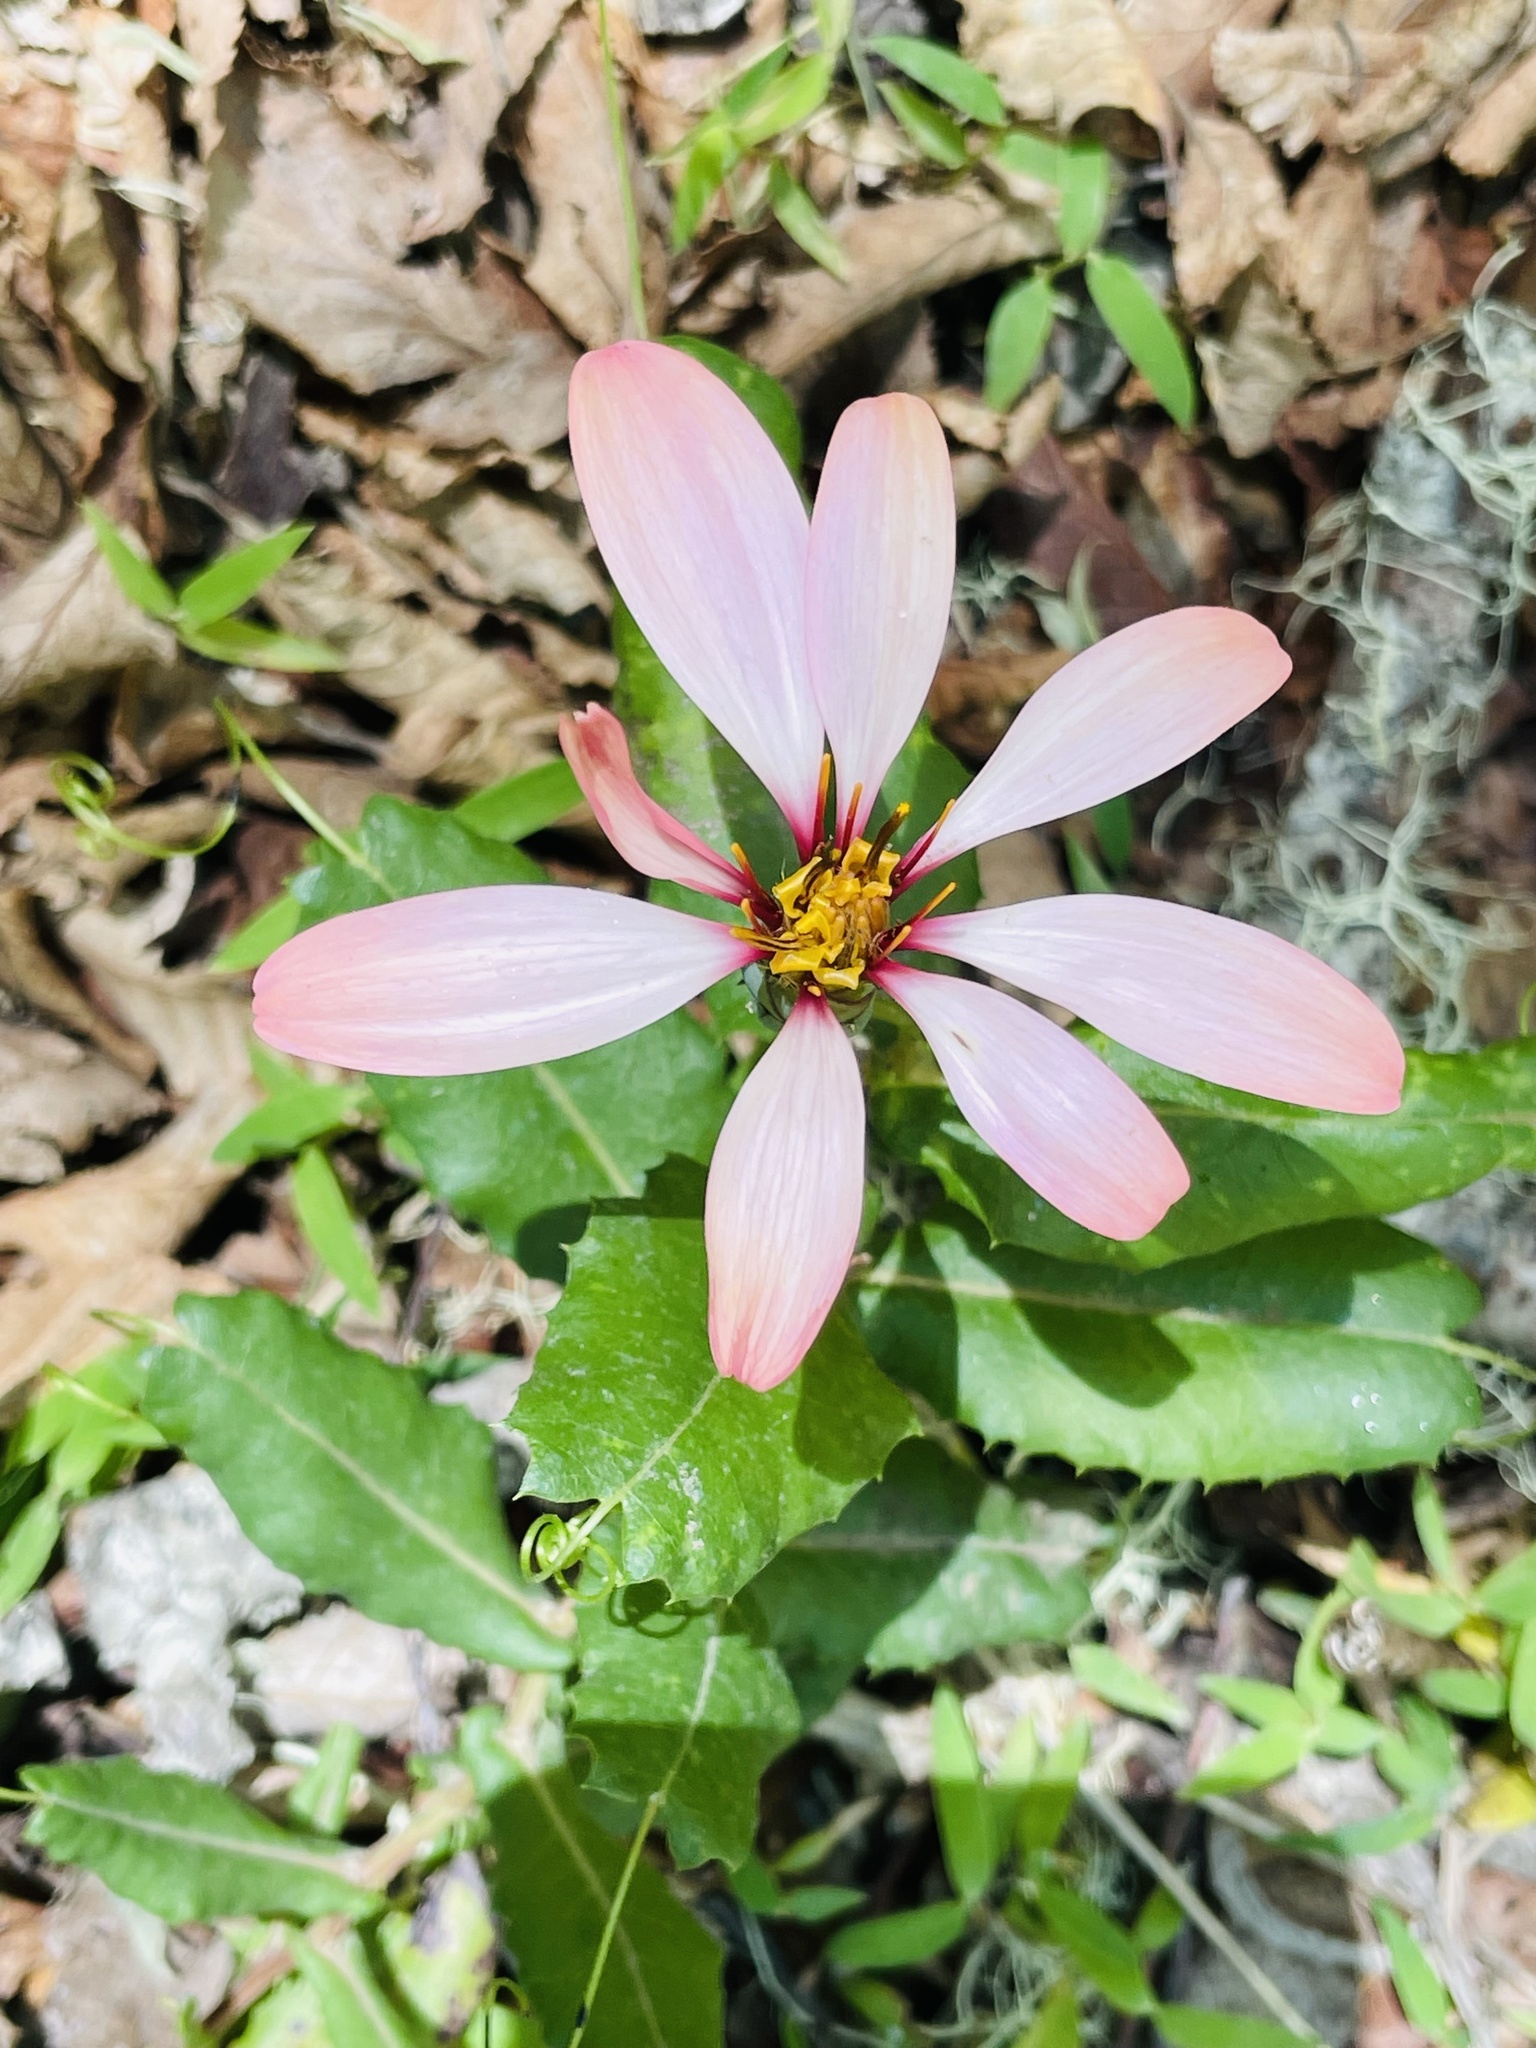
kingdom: Plantae
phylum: Tracheophyta
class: Magnoliopsida
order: Asterales
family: Asteraceae
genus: Mutisia
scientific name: Mutisia ilicifolia
